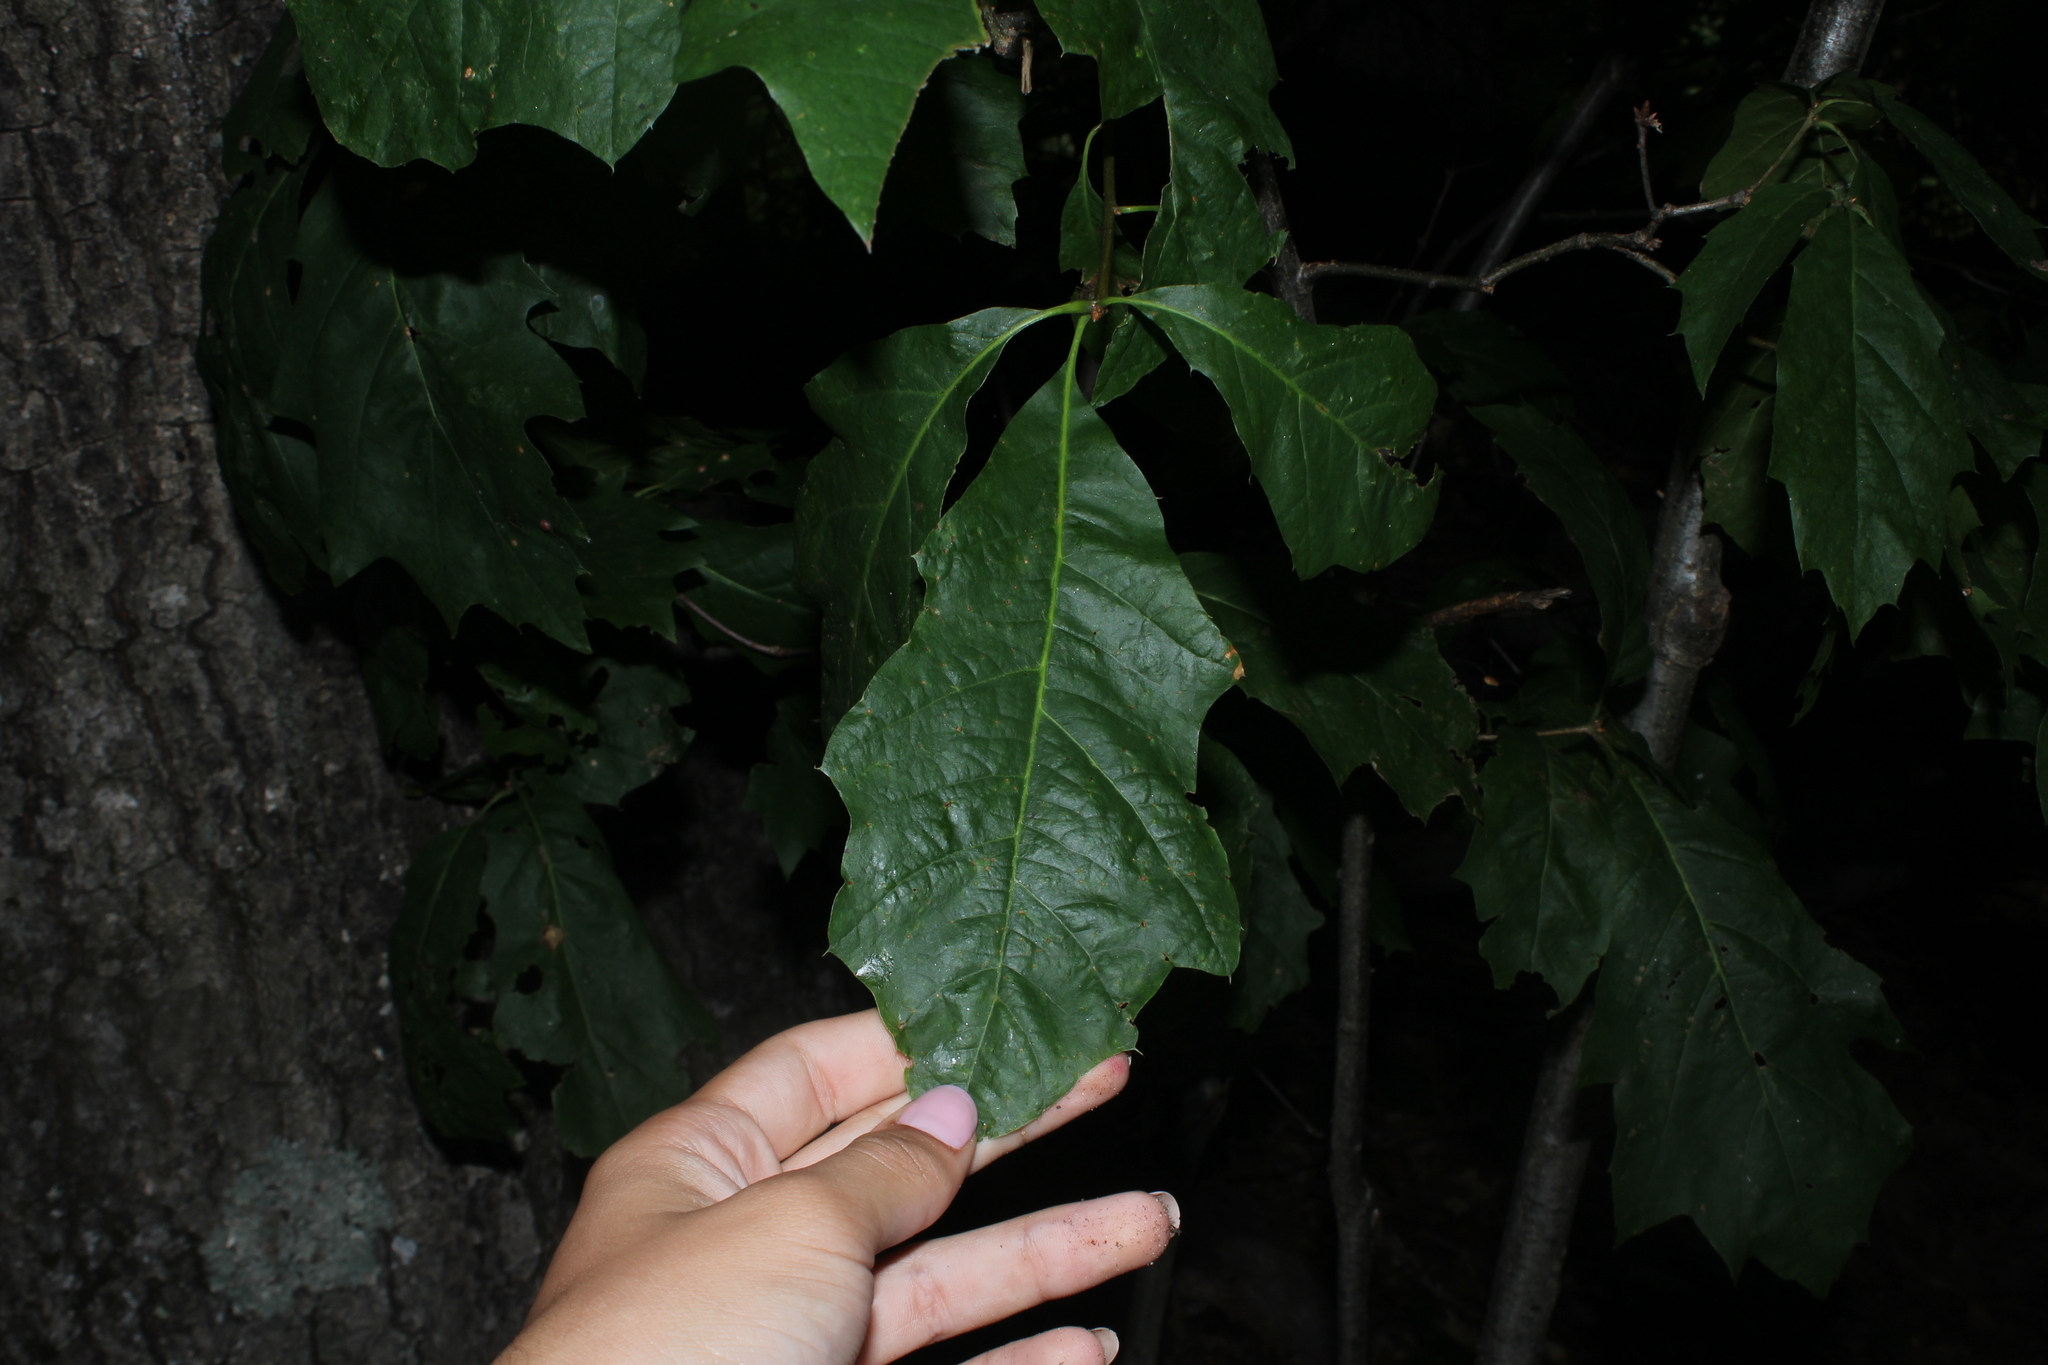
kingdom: Plantae
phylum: Tracheophyta
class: Magnoliopsida
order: Fagales
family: Fagaceae
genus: Quercus
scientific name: Quercus
